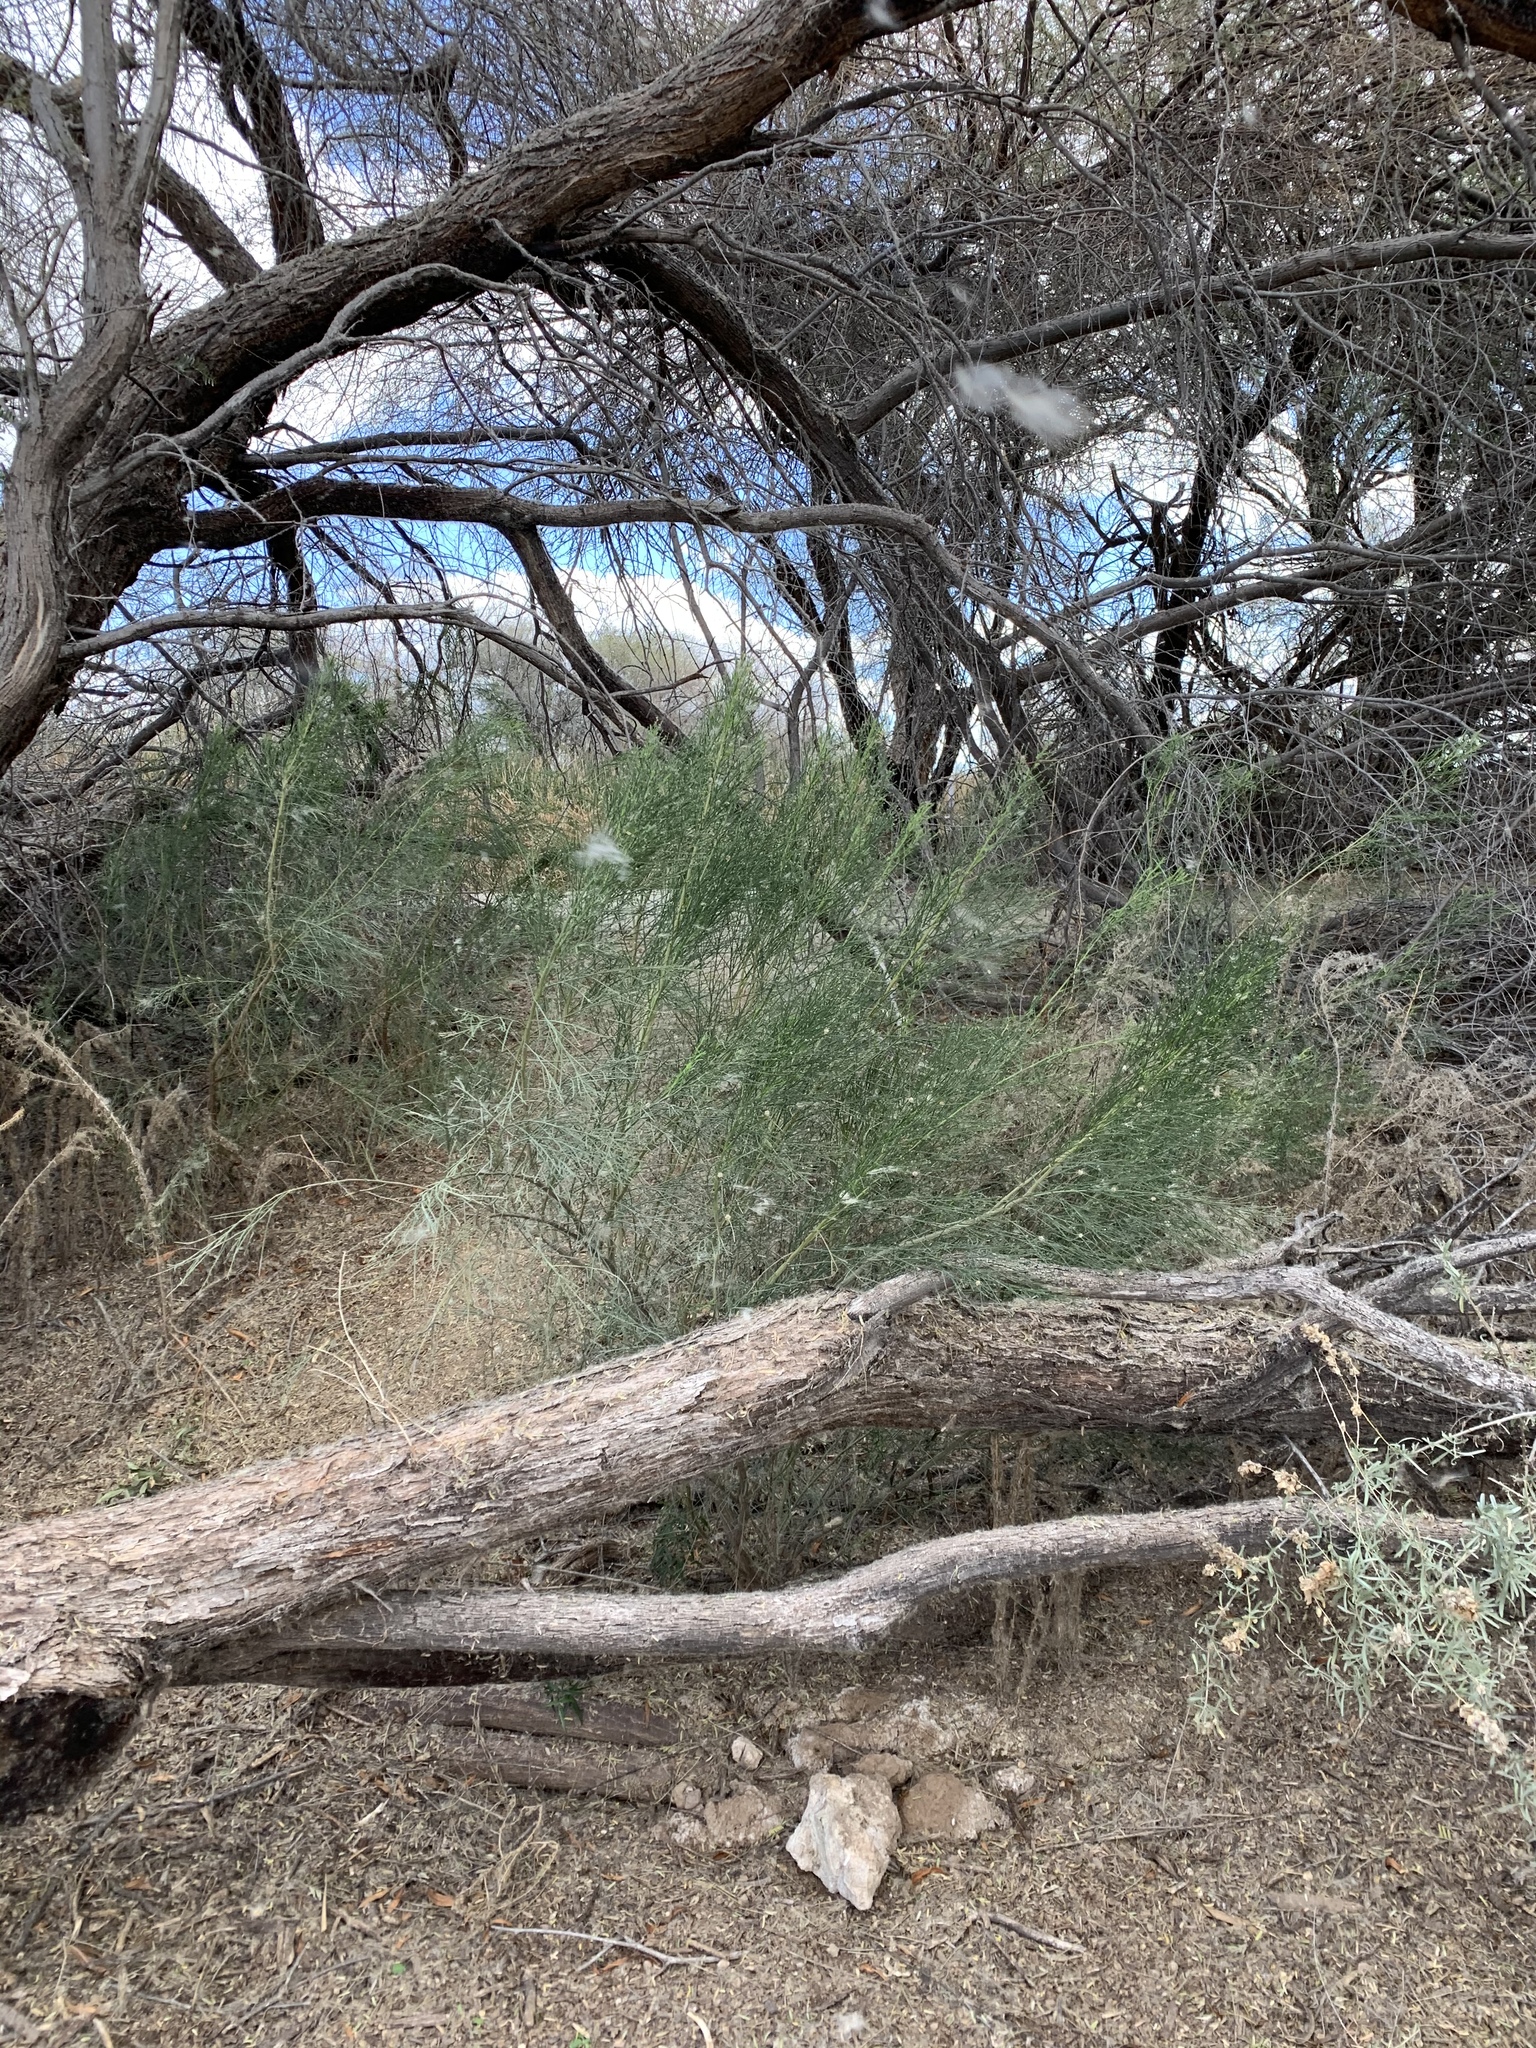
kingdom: Plantae
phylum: Tracheophyta
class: Magnoliopsida
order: Asterales
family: Asteraceae
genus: Baccharis
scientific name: Baccharis sarothroides
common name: Desert-broom
